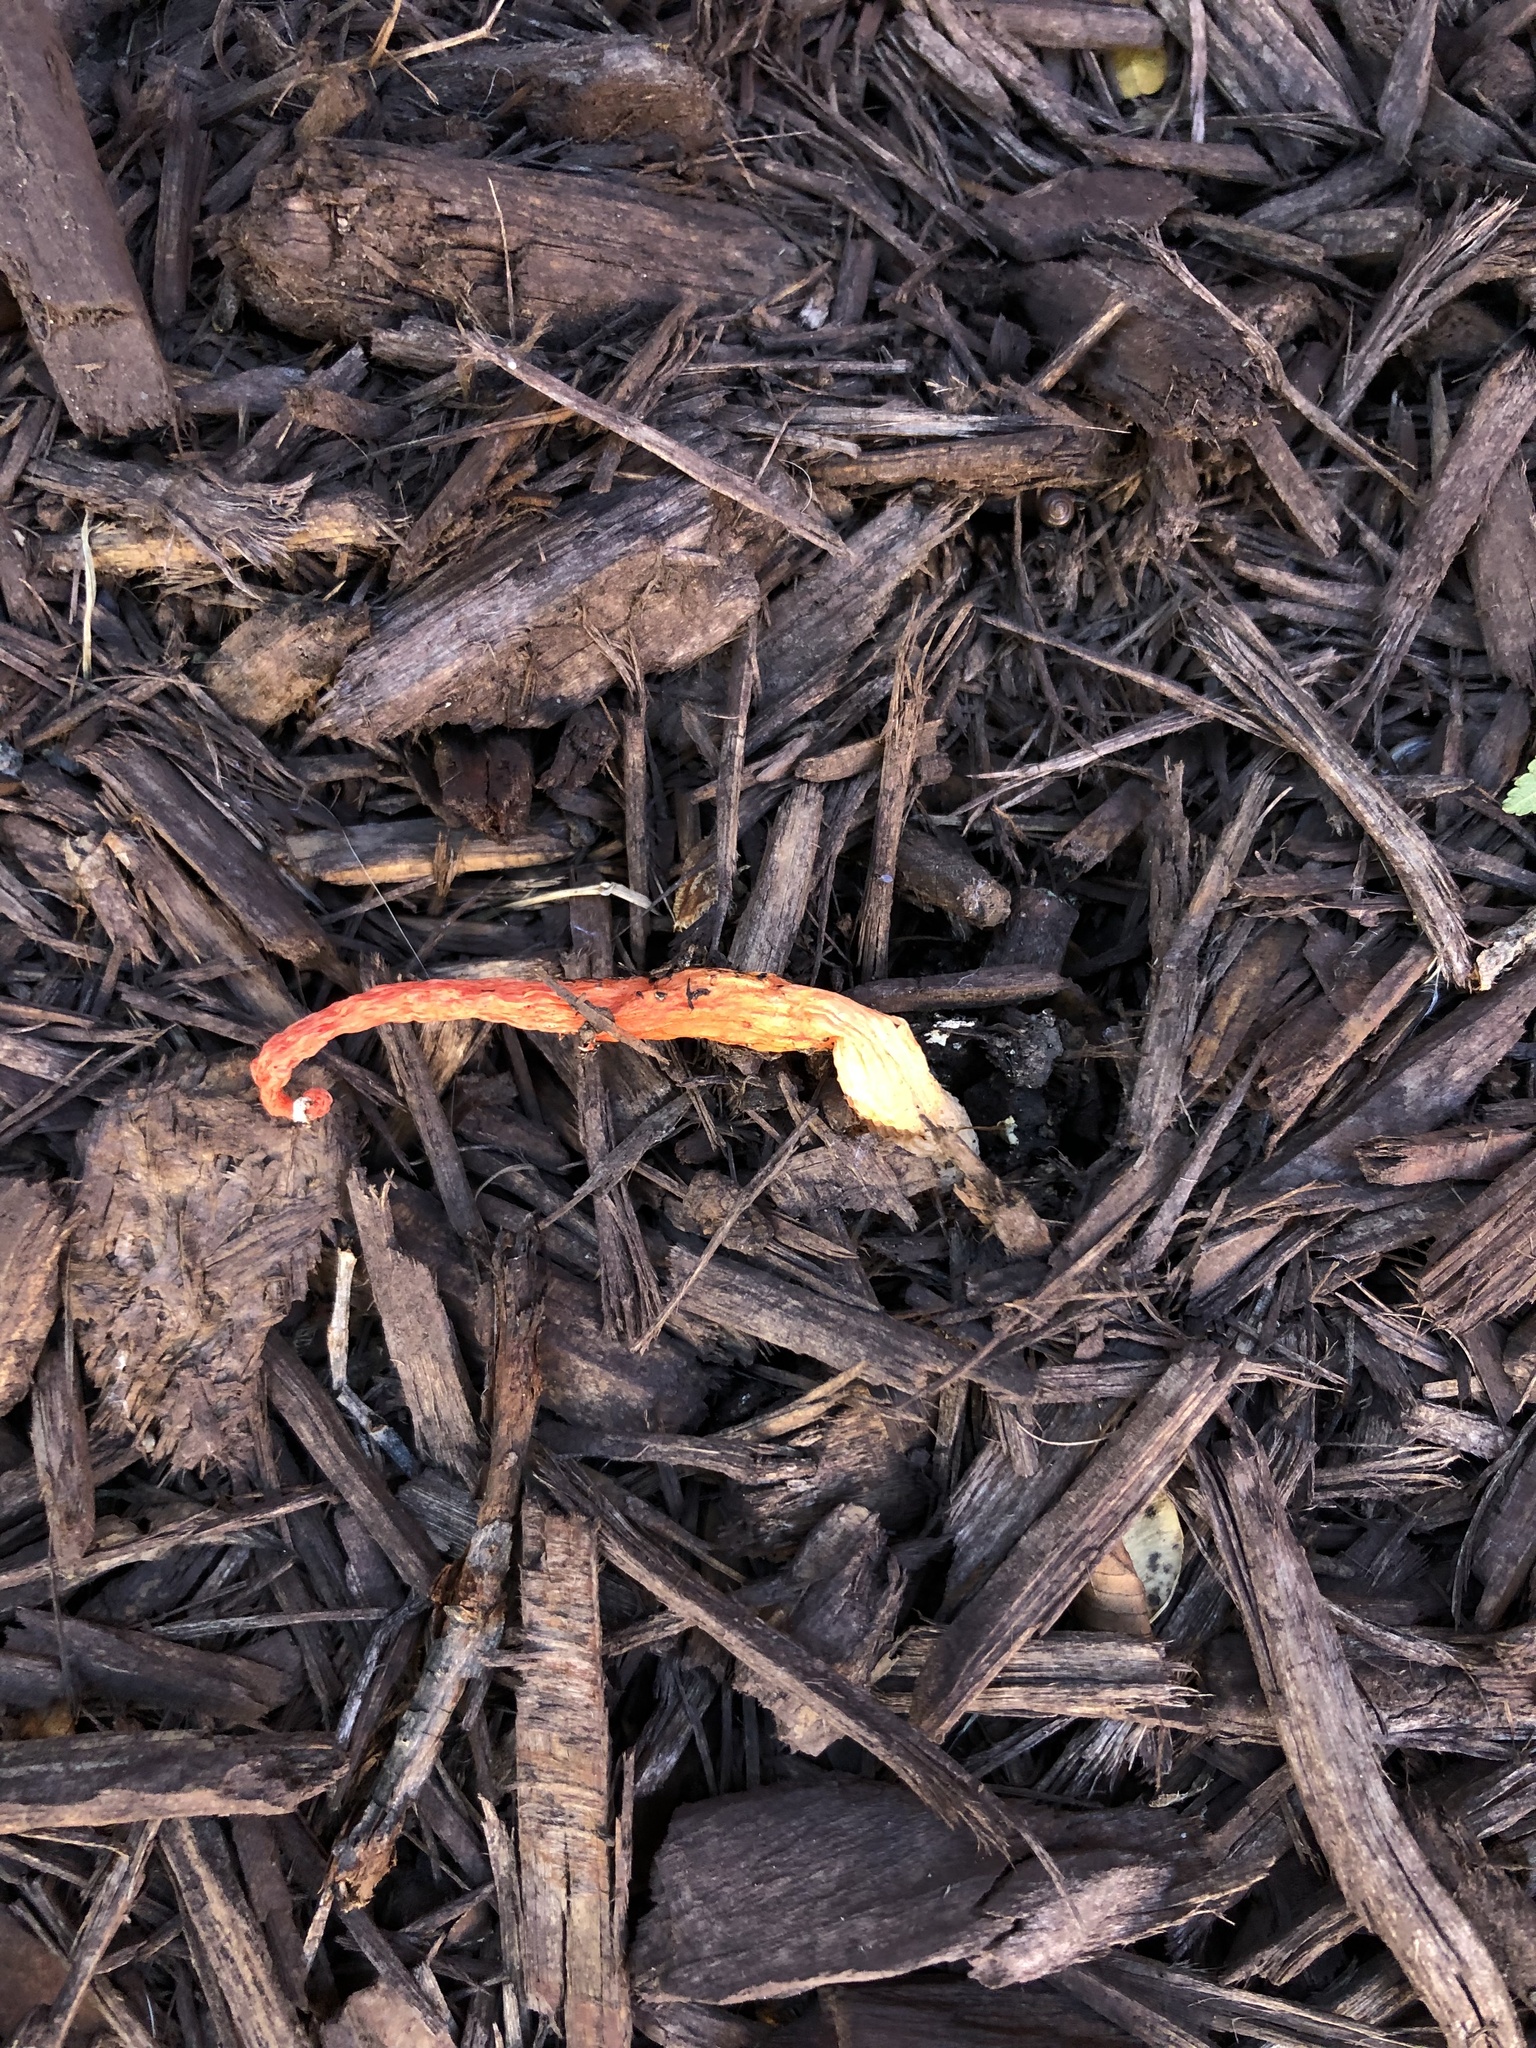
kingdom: Fungi
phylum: Basidiomycota
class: Agaricomycetes
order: Phallales
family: Phallaceae
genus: Phallus
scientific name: Phallus rugulosus
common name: Wrinkly stinkhorn
